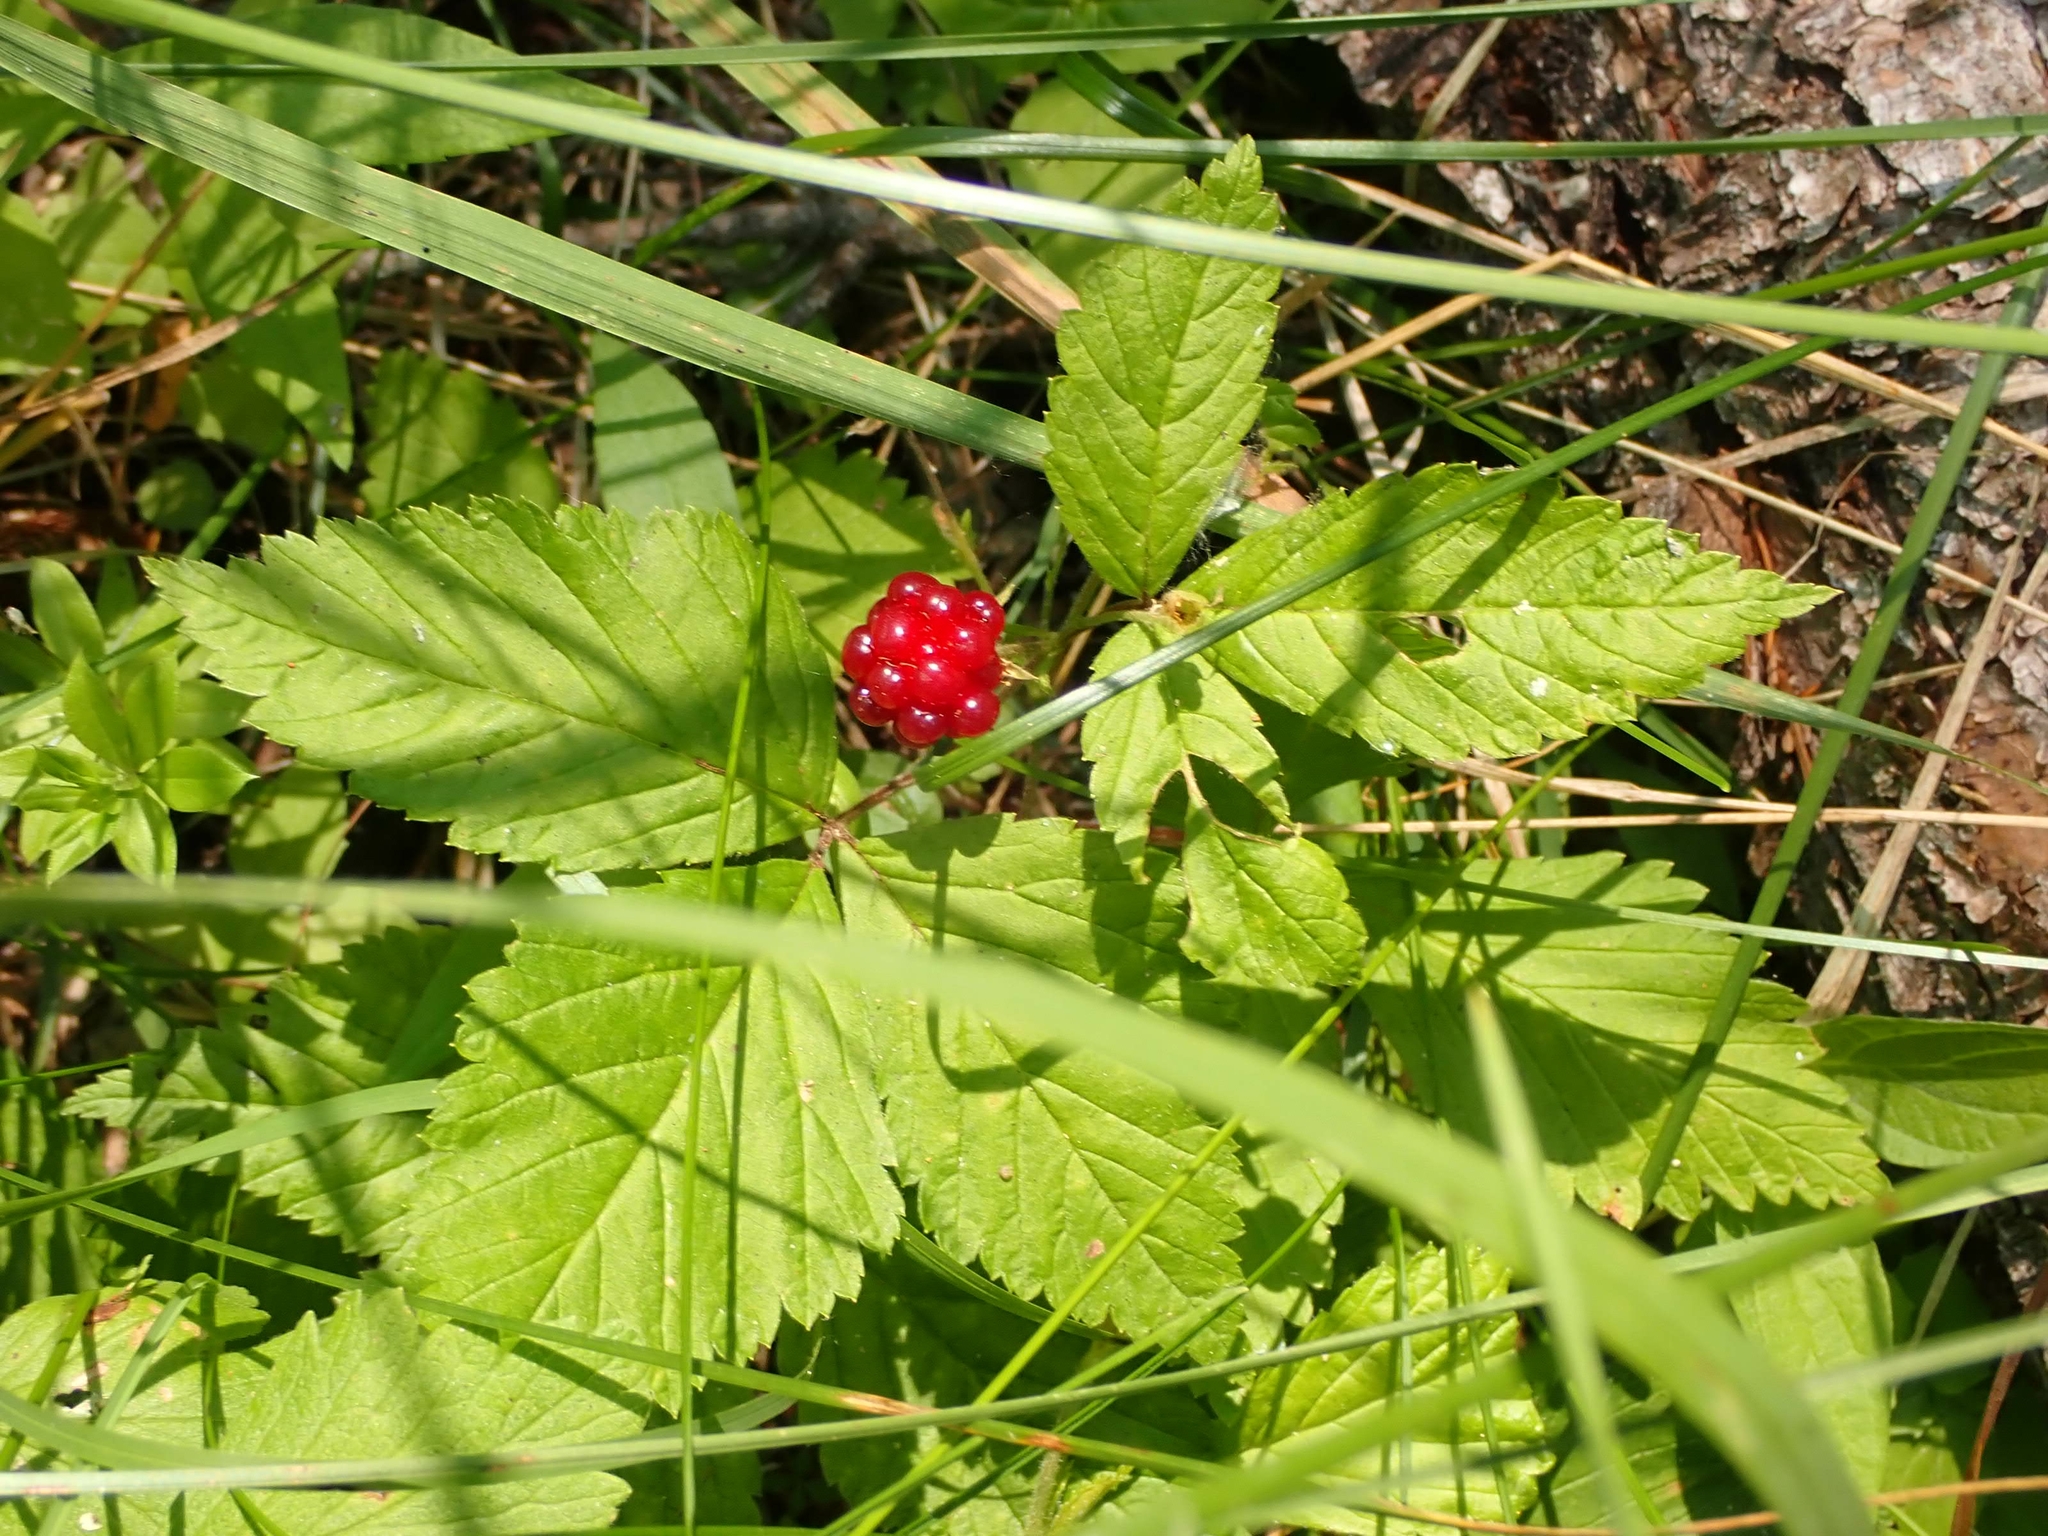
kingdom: Plantae
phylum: Tracheophyta
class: Magnoliopsida
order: Rosales
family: Rosaceae
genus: Rubus
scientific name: Rubus pubescens
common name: Dwarf raspberry
